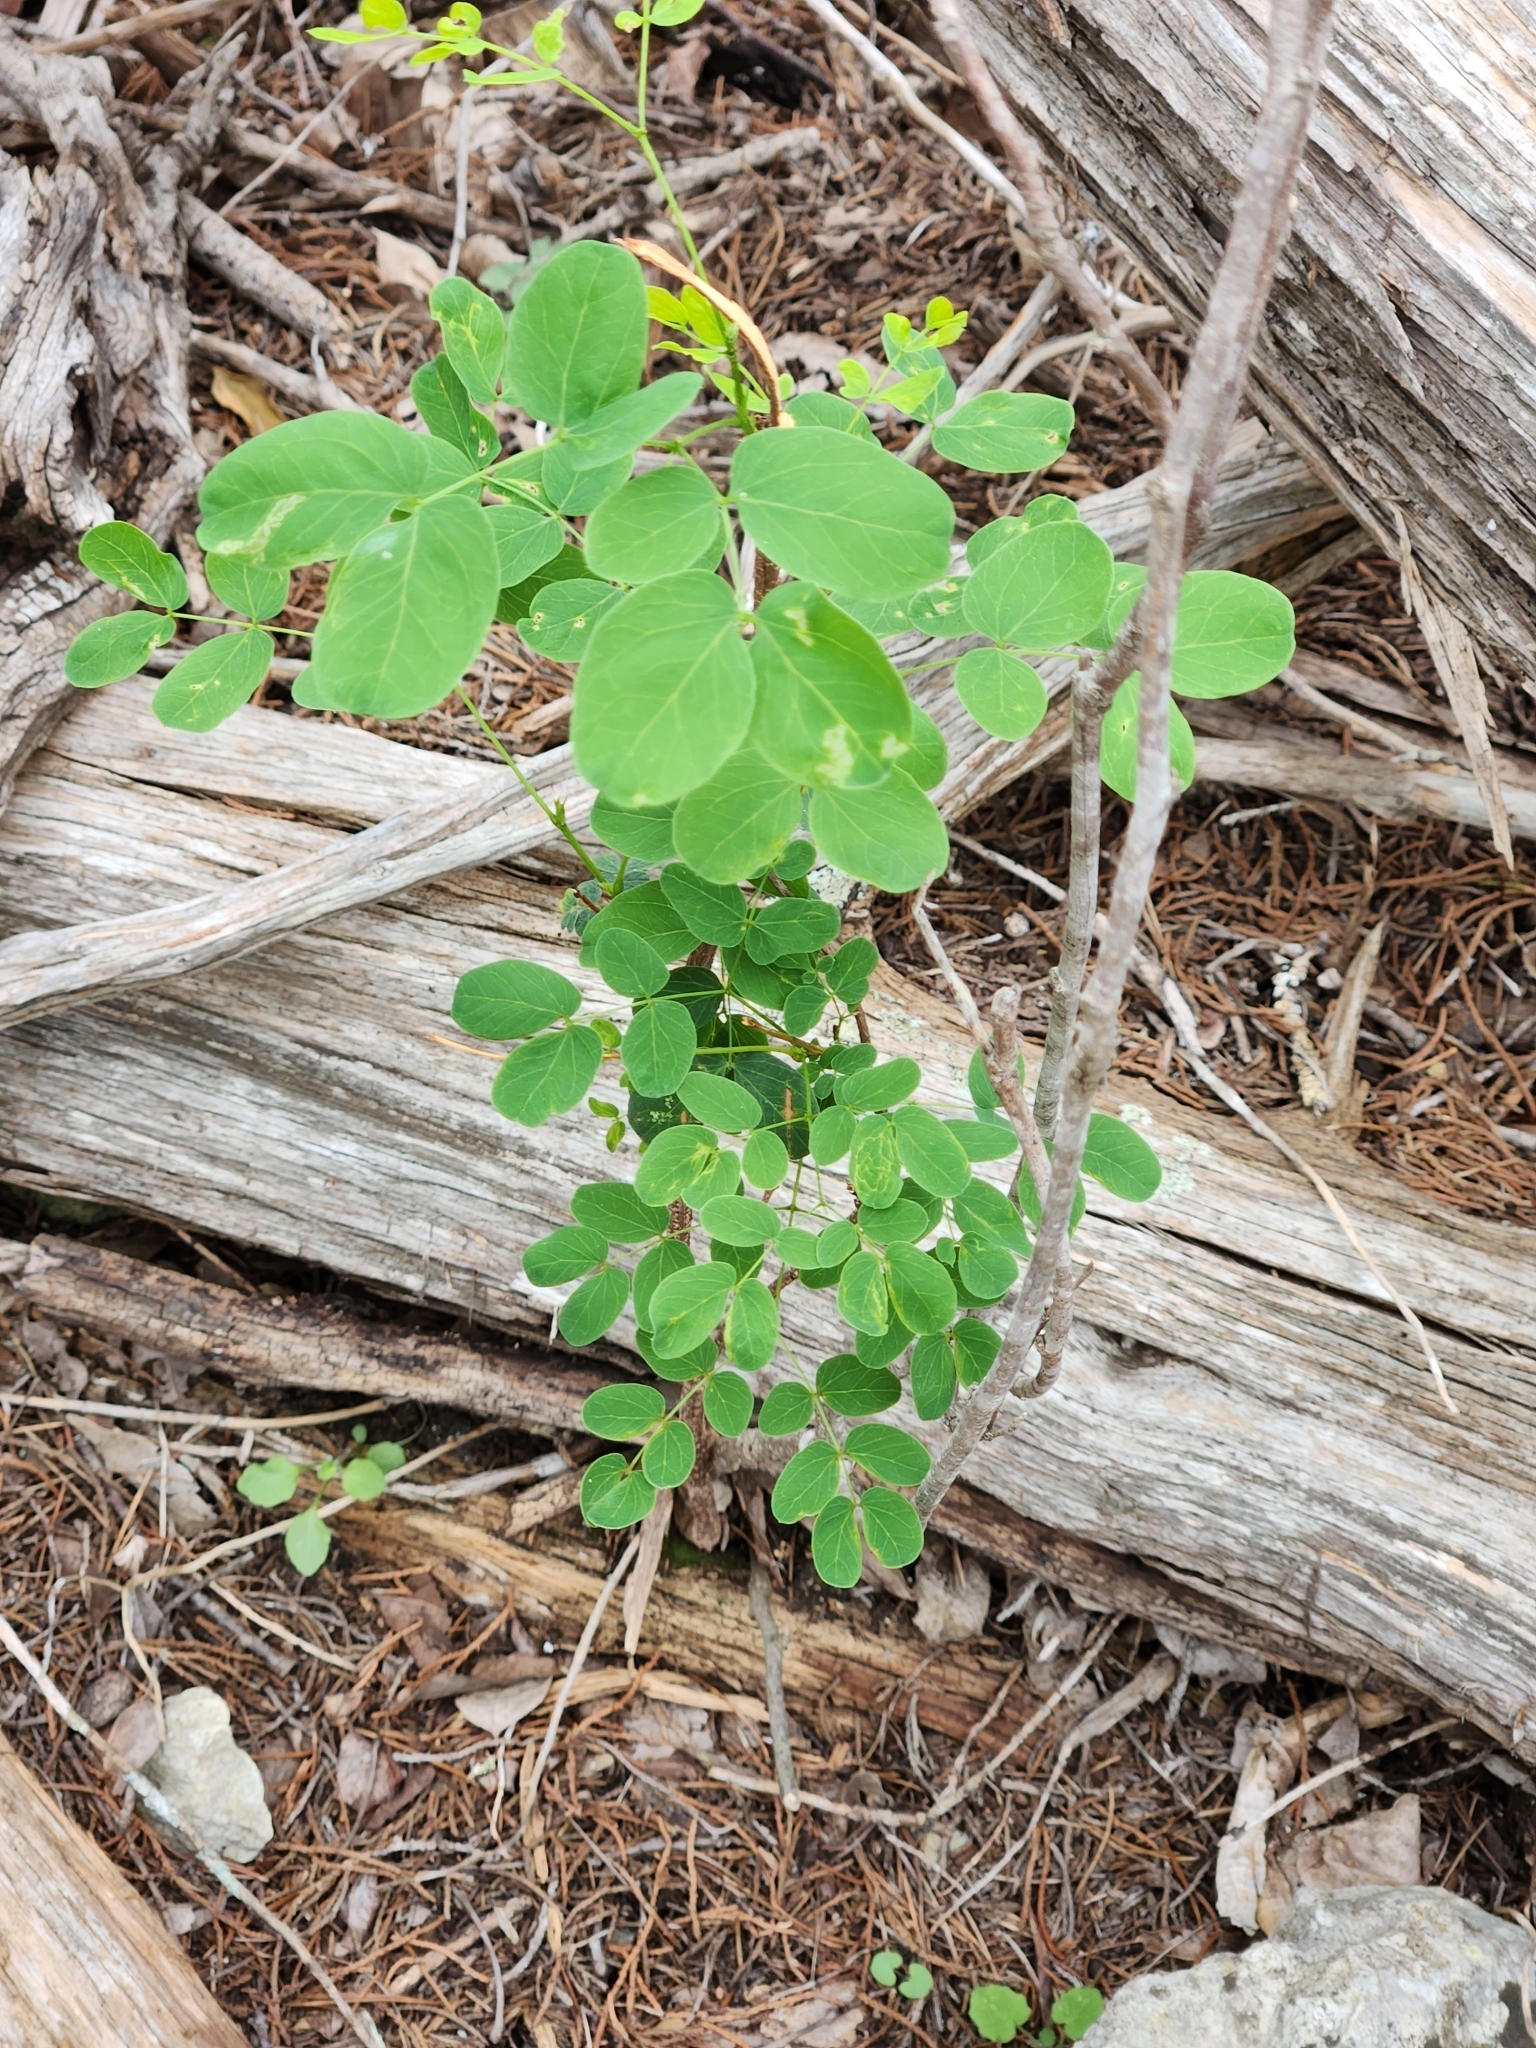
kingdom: Plantae
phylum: Tracheophyta
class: Magnoliopsida
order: Fabales
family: Fabaceae
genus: Leucaena
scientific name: Leucaena retusa
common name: Littleleaf leadtree
